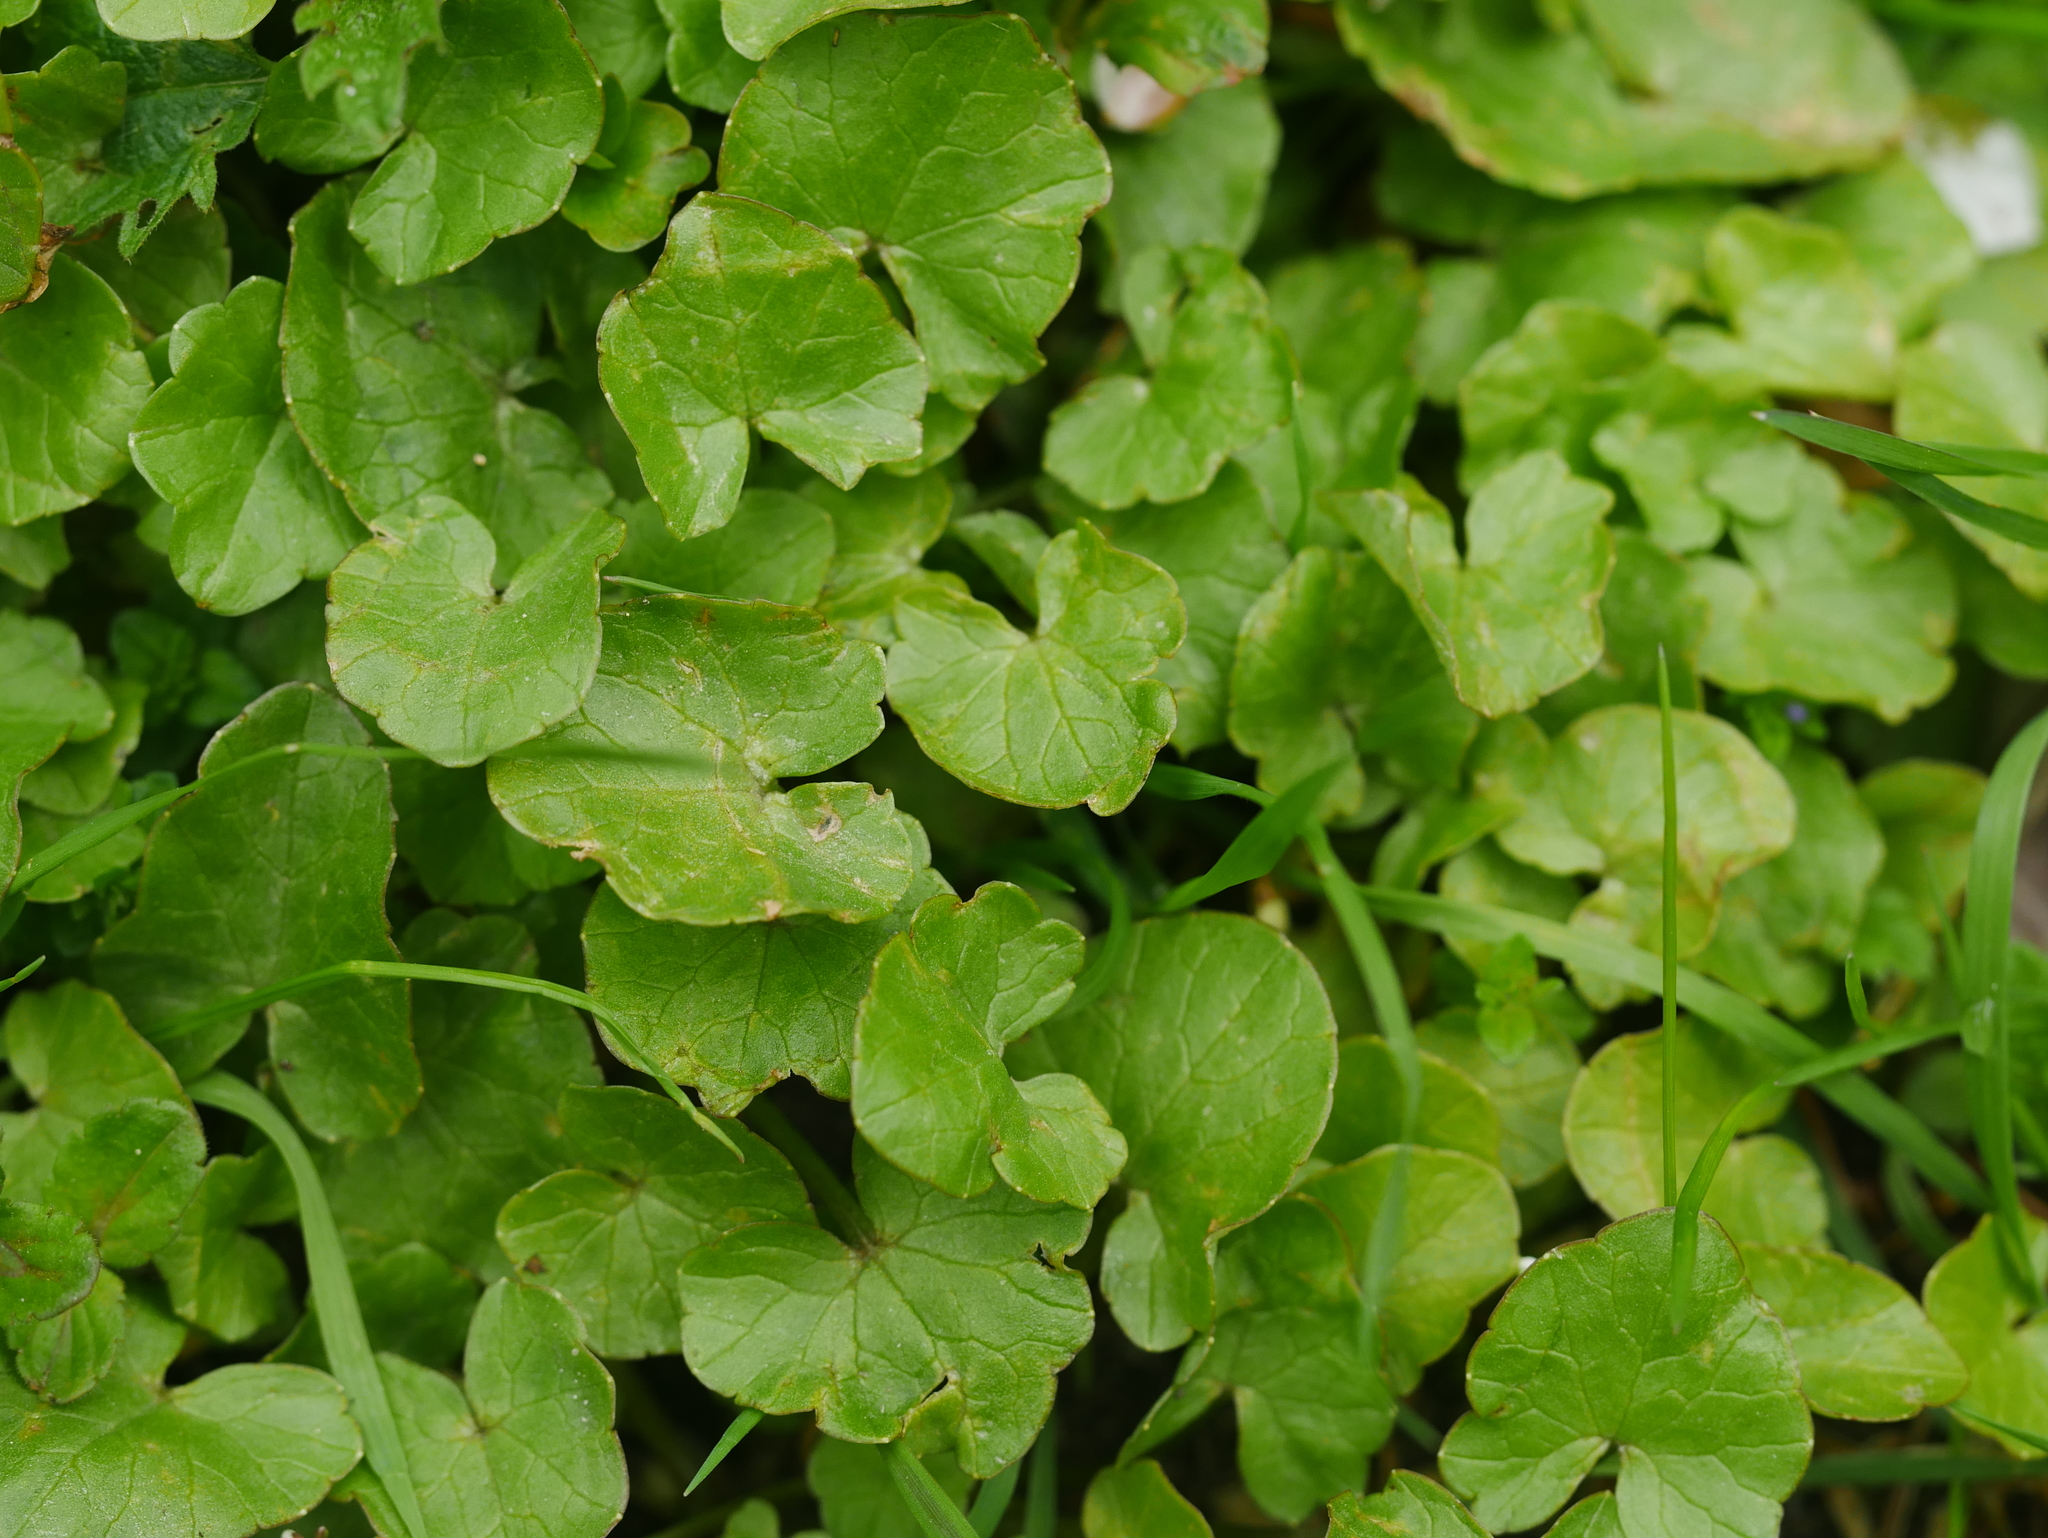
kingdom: Plantae
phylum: Tracheophyta
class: Magnoliopsida
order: Ranunculales
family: Ranunculaceae
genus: Ficaria
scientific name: Ficaria verna
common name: Lesser celandine
